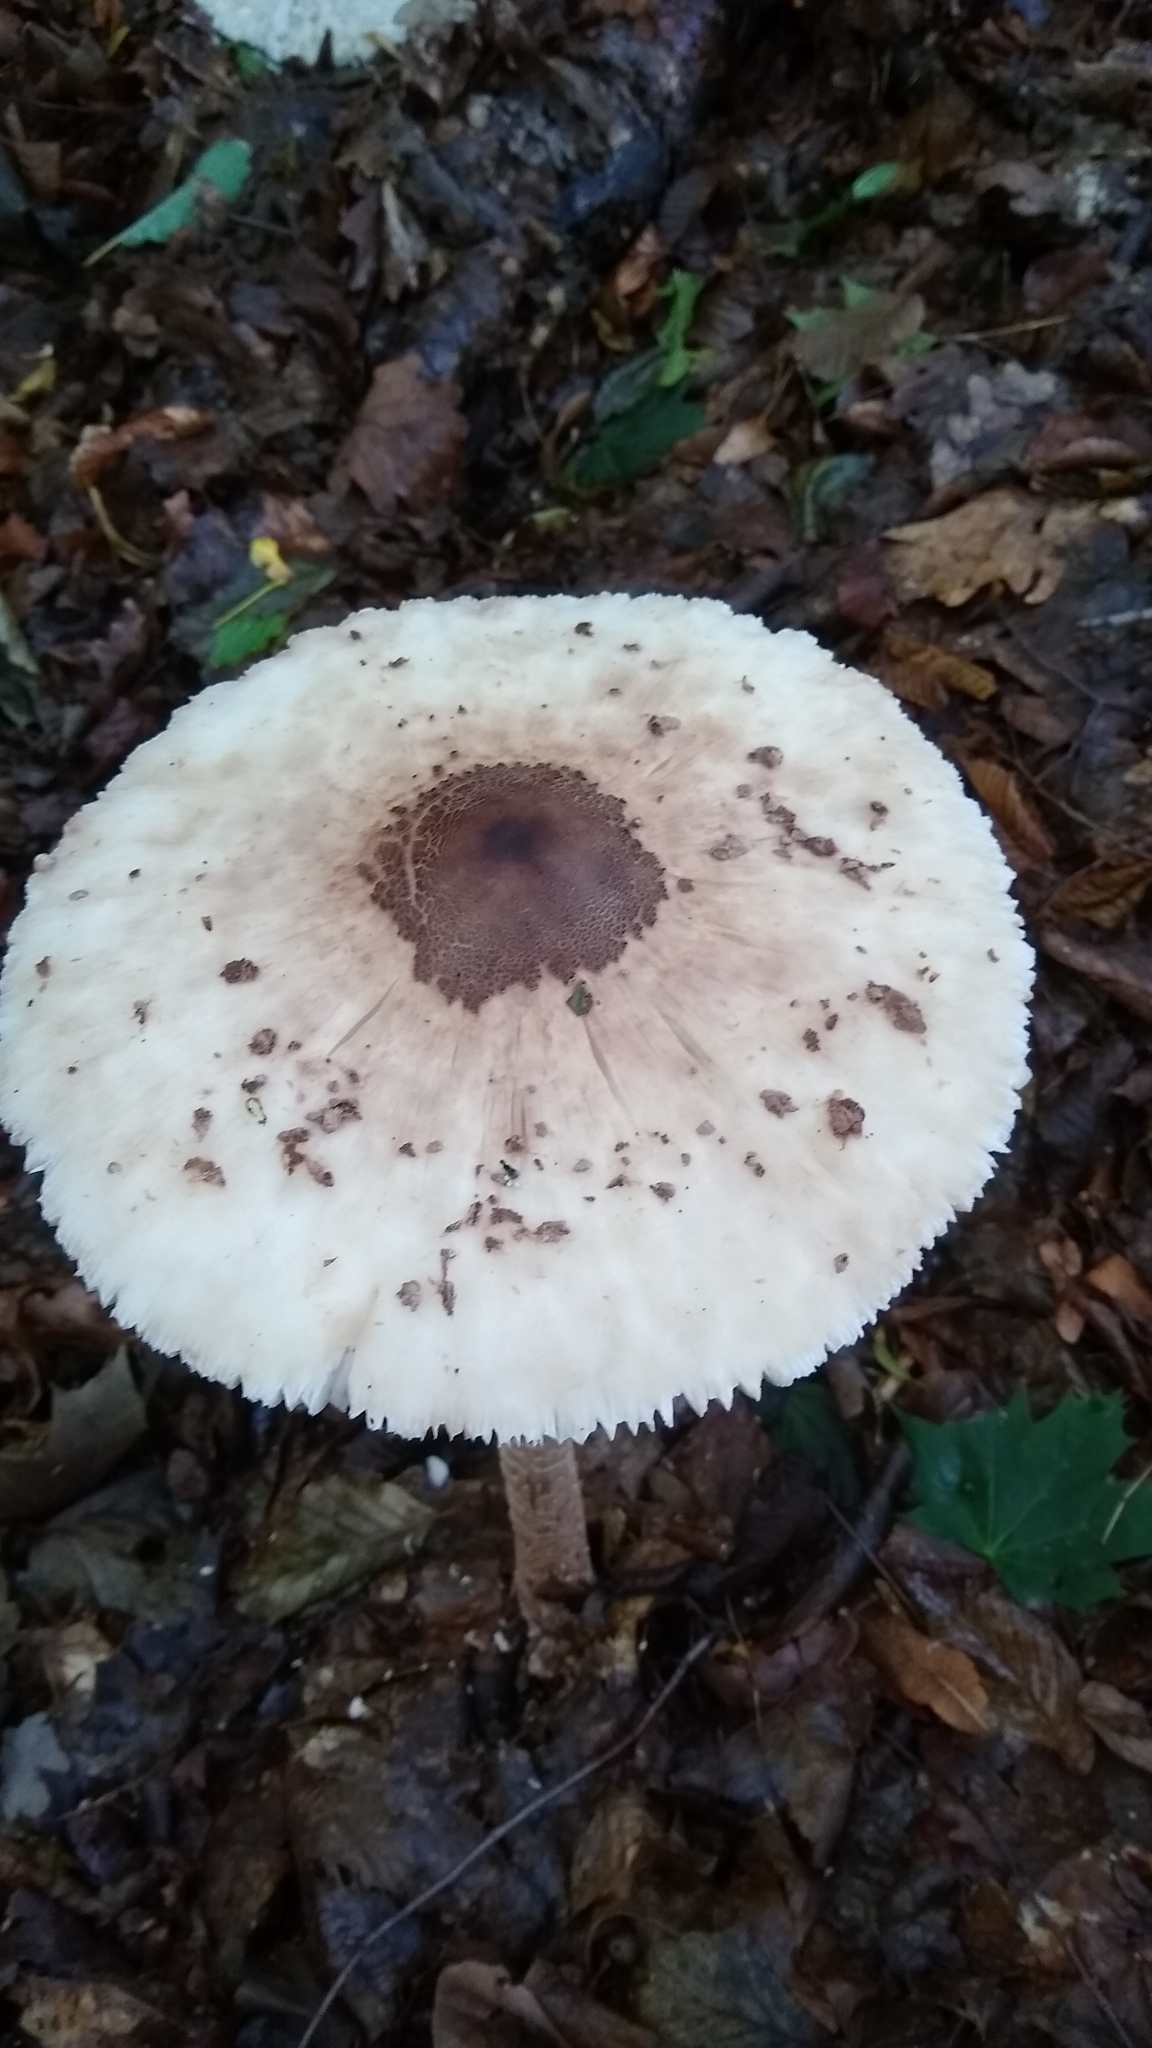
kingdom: Fungi
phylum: Basidiomycota
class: Agaricomycetes
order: Agaricales
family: Agaricaceae
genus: Macrolepiota
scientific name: Macrolepiota procera
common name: Parasol
